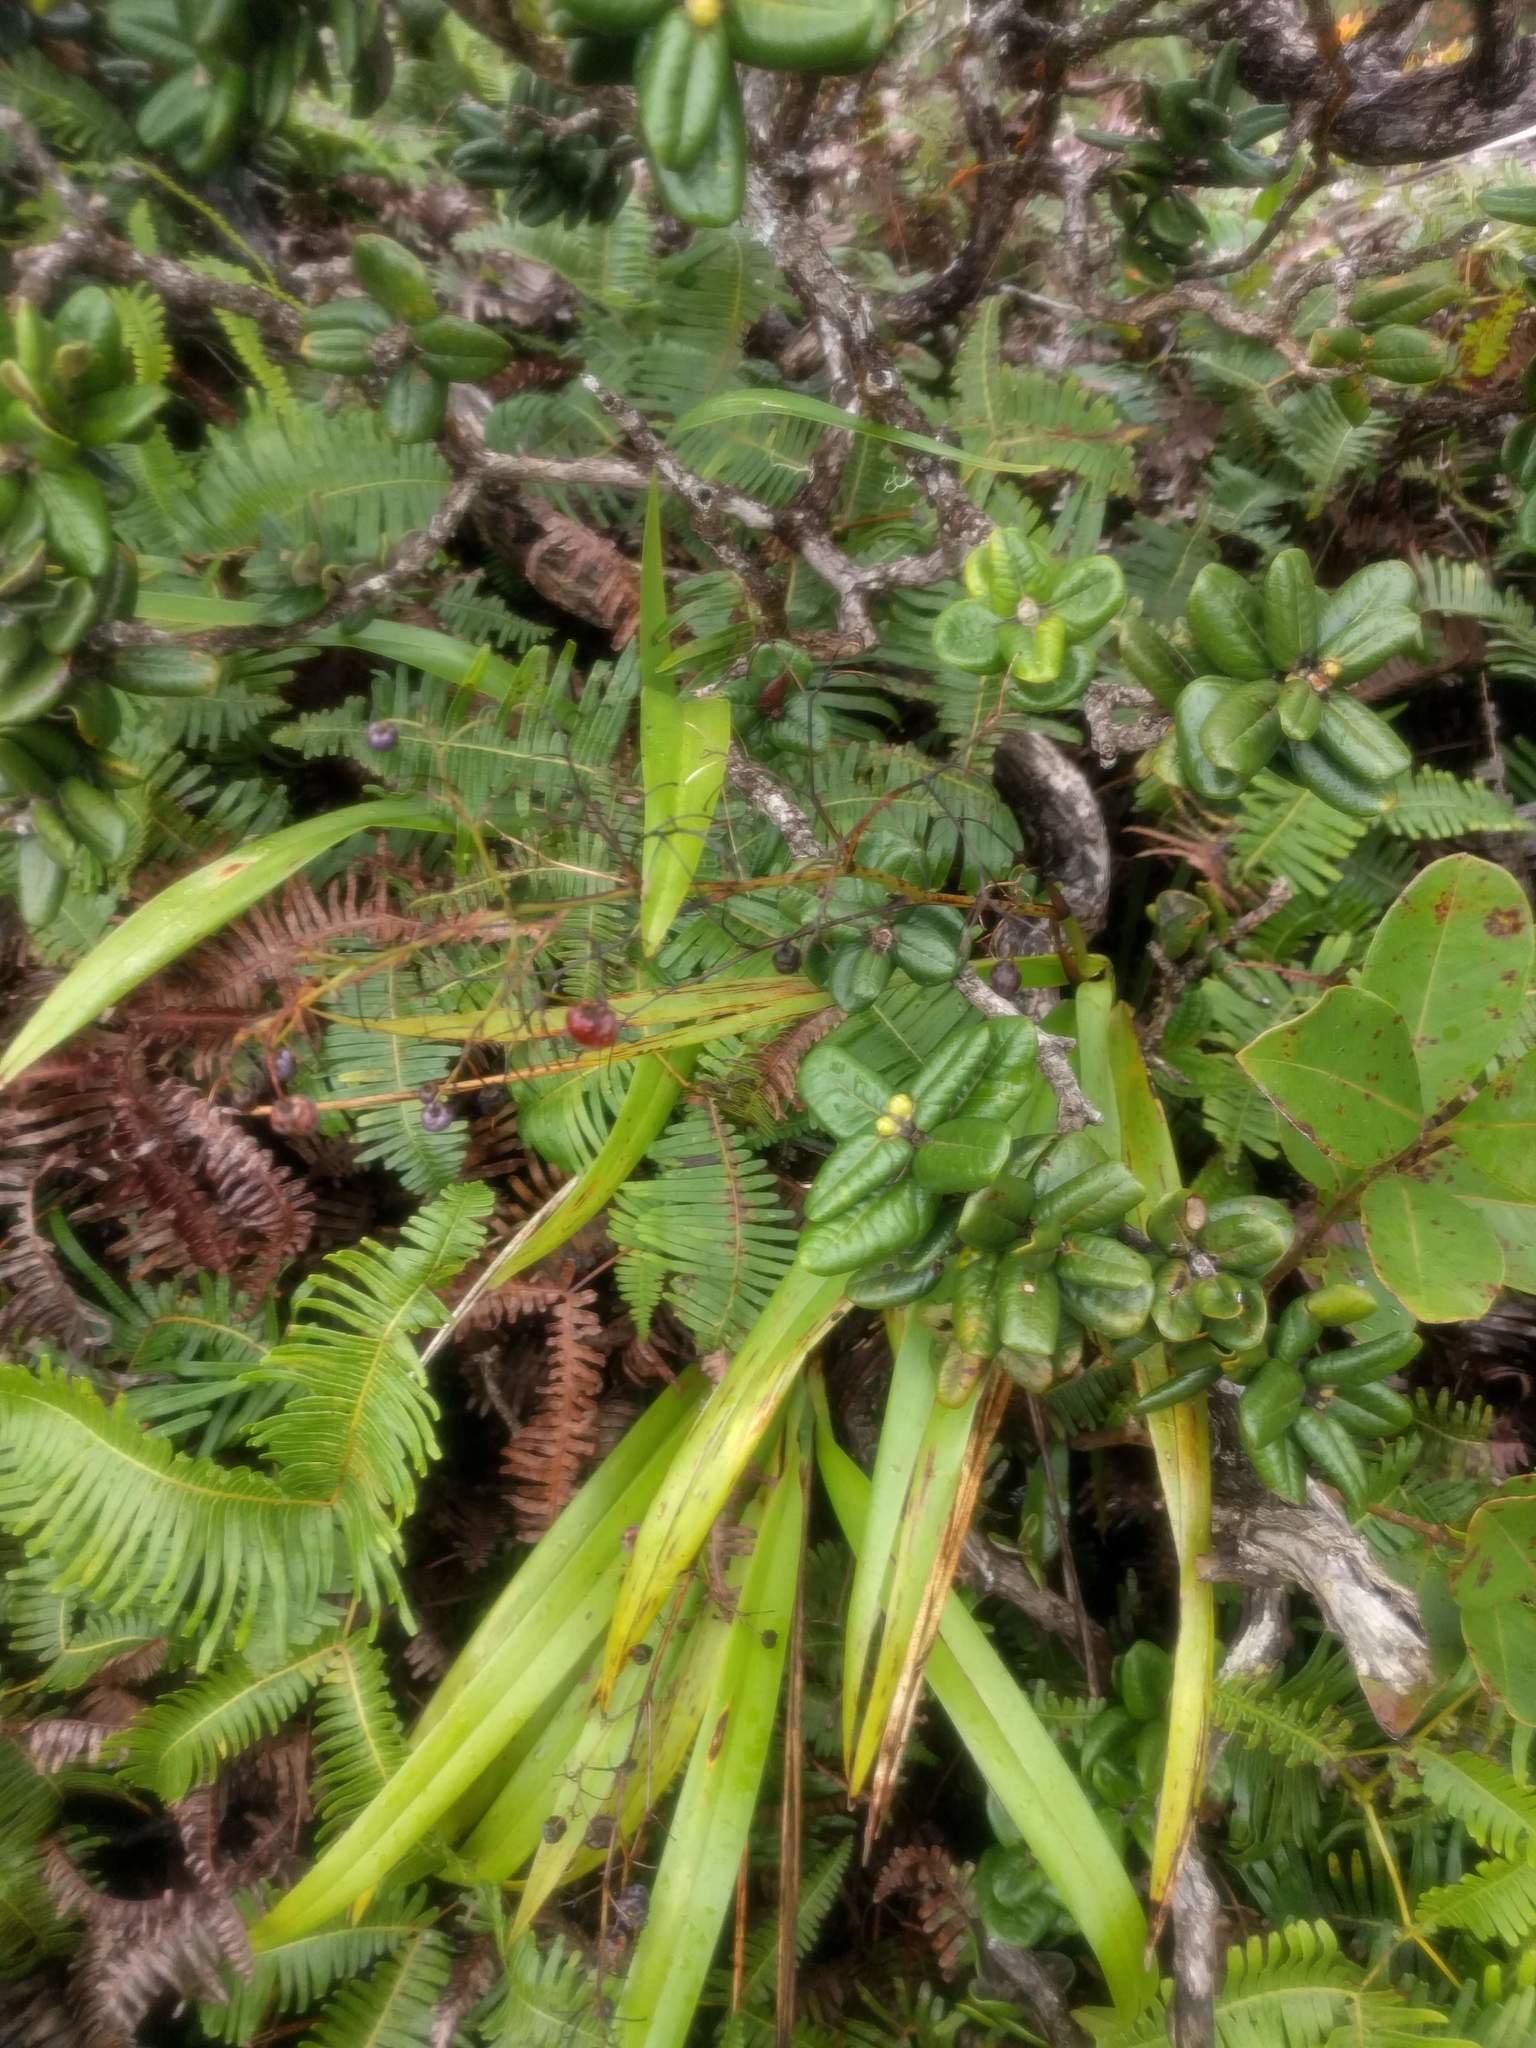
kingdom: Plantae
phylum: Tracheophyta
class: Liliopsida
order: Asparagales
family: Asphodelaceae
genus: Dianella
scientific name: Dianella sandwicensis
